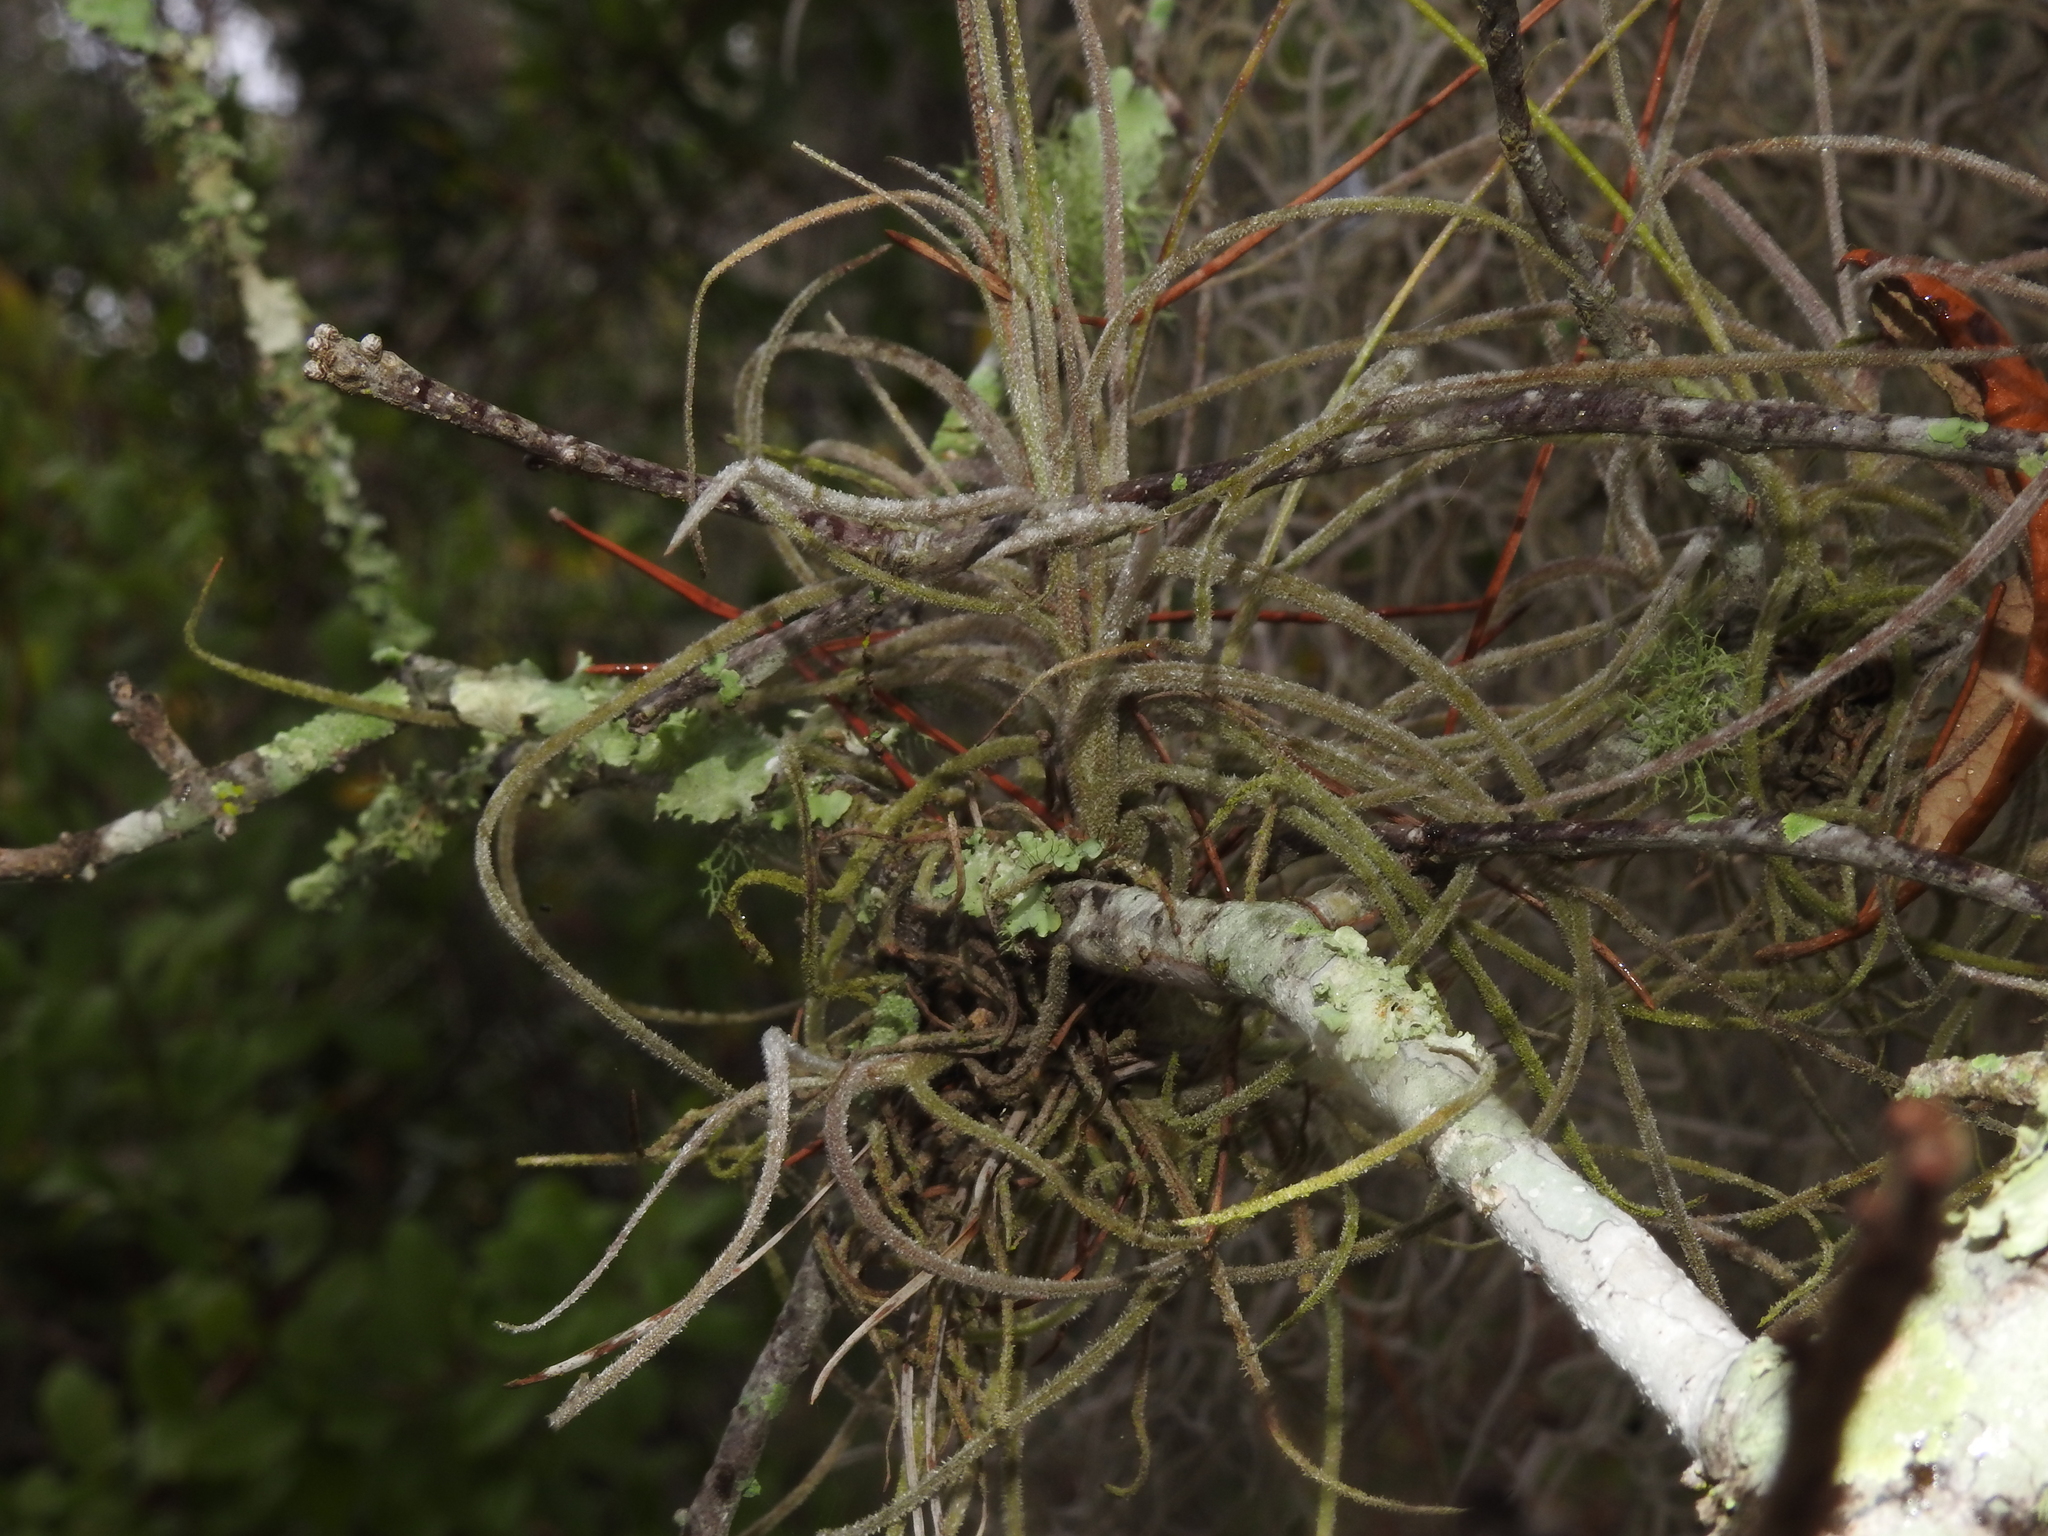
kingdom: Plantae
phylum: Tracheophyta
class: Liliopsida
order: Poales
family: Bromeliaceae
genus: Tillandsia
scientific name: Tillandsia recurvata
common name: Small ballmoss
